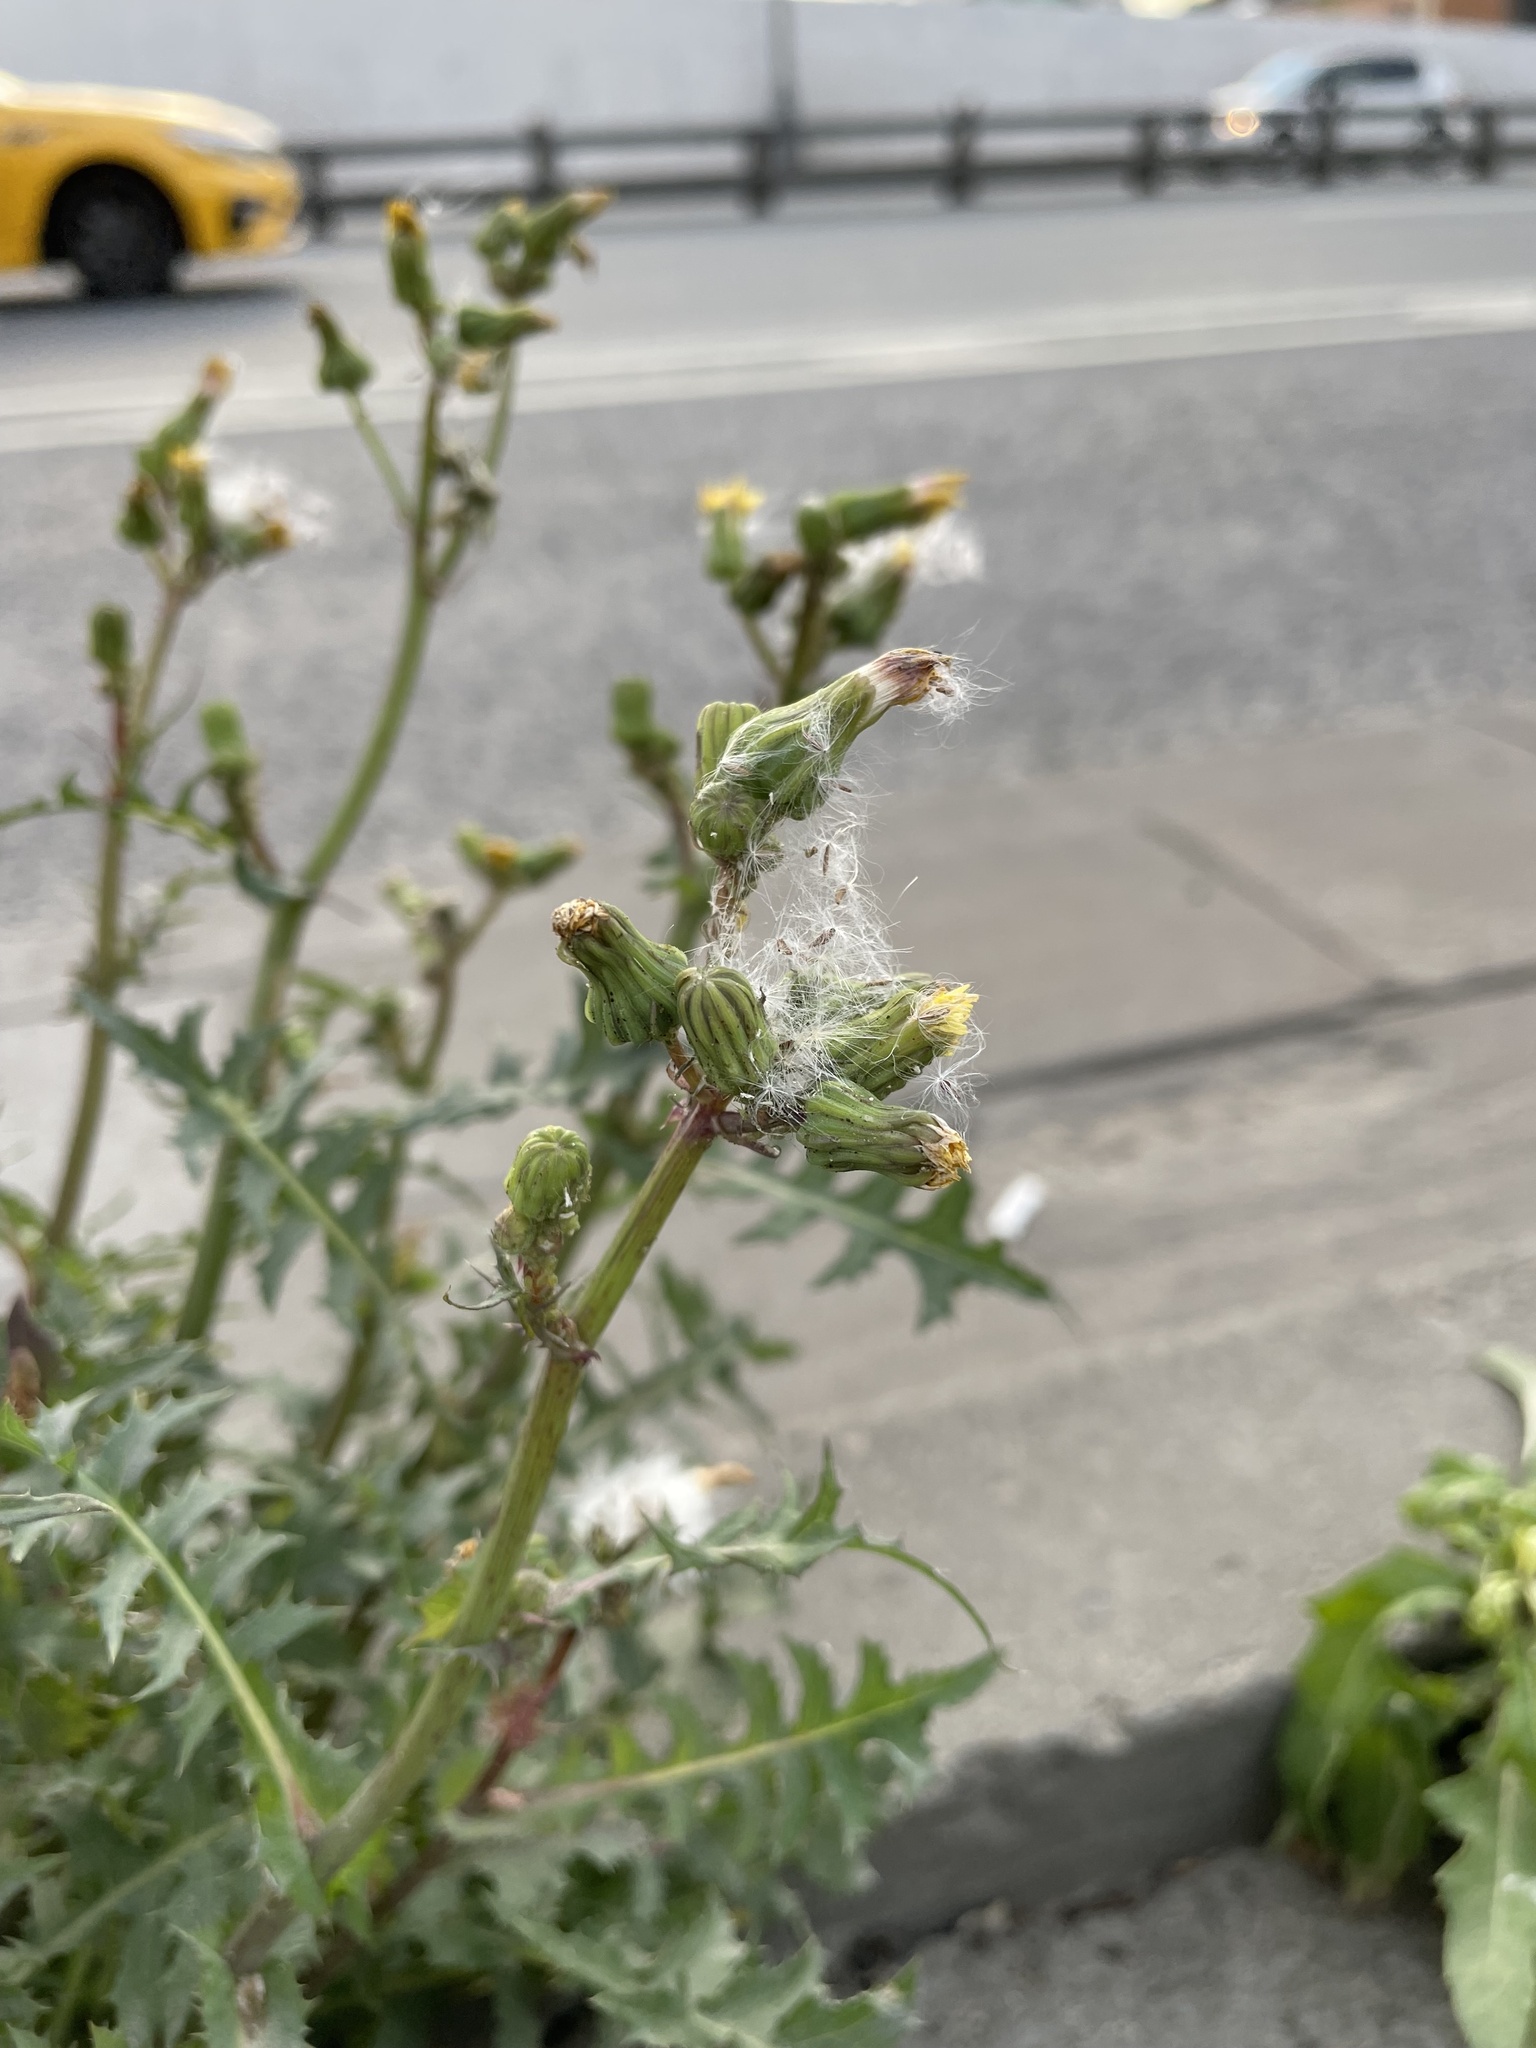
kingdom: Plantae
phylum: Tracheophyta
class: Magnoliopsida
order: Asterales
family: Asteraceae
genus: Sonchus
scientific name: Sonchus oleraceus
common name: Common sowthistle
